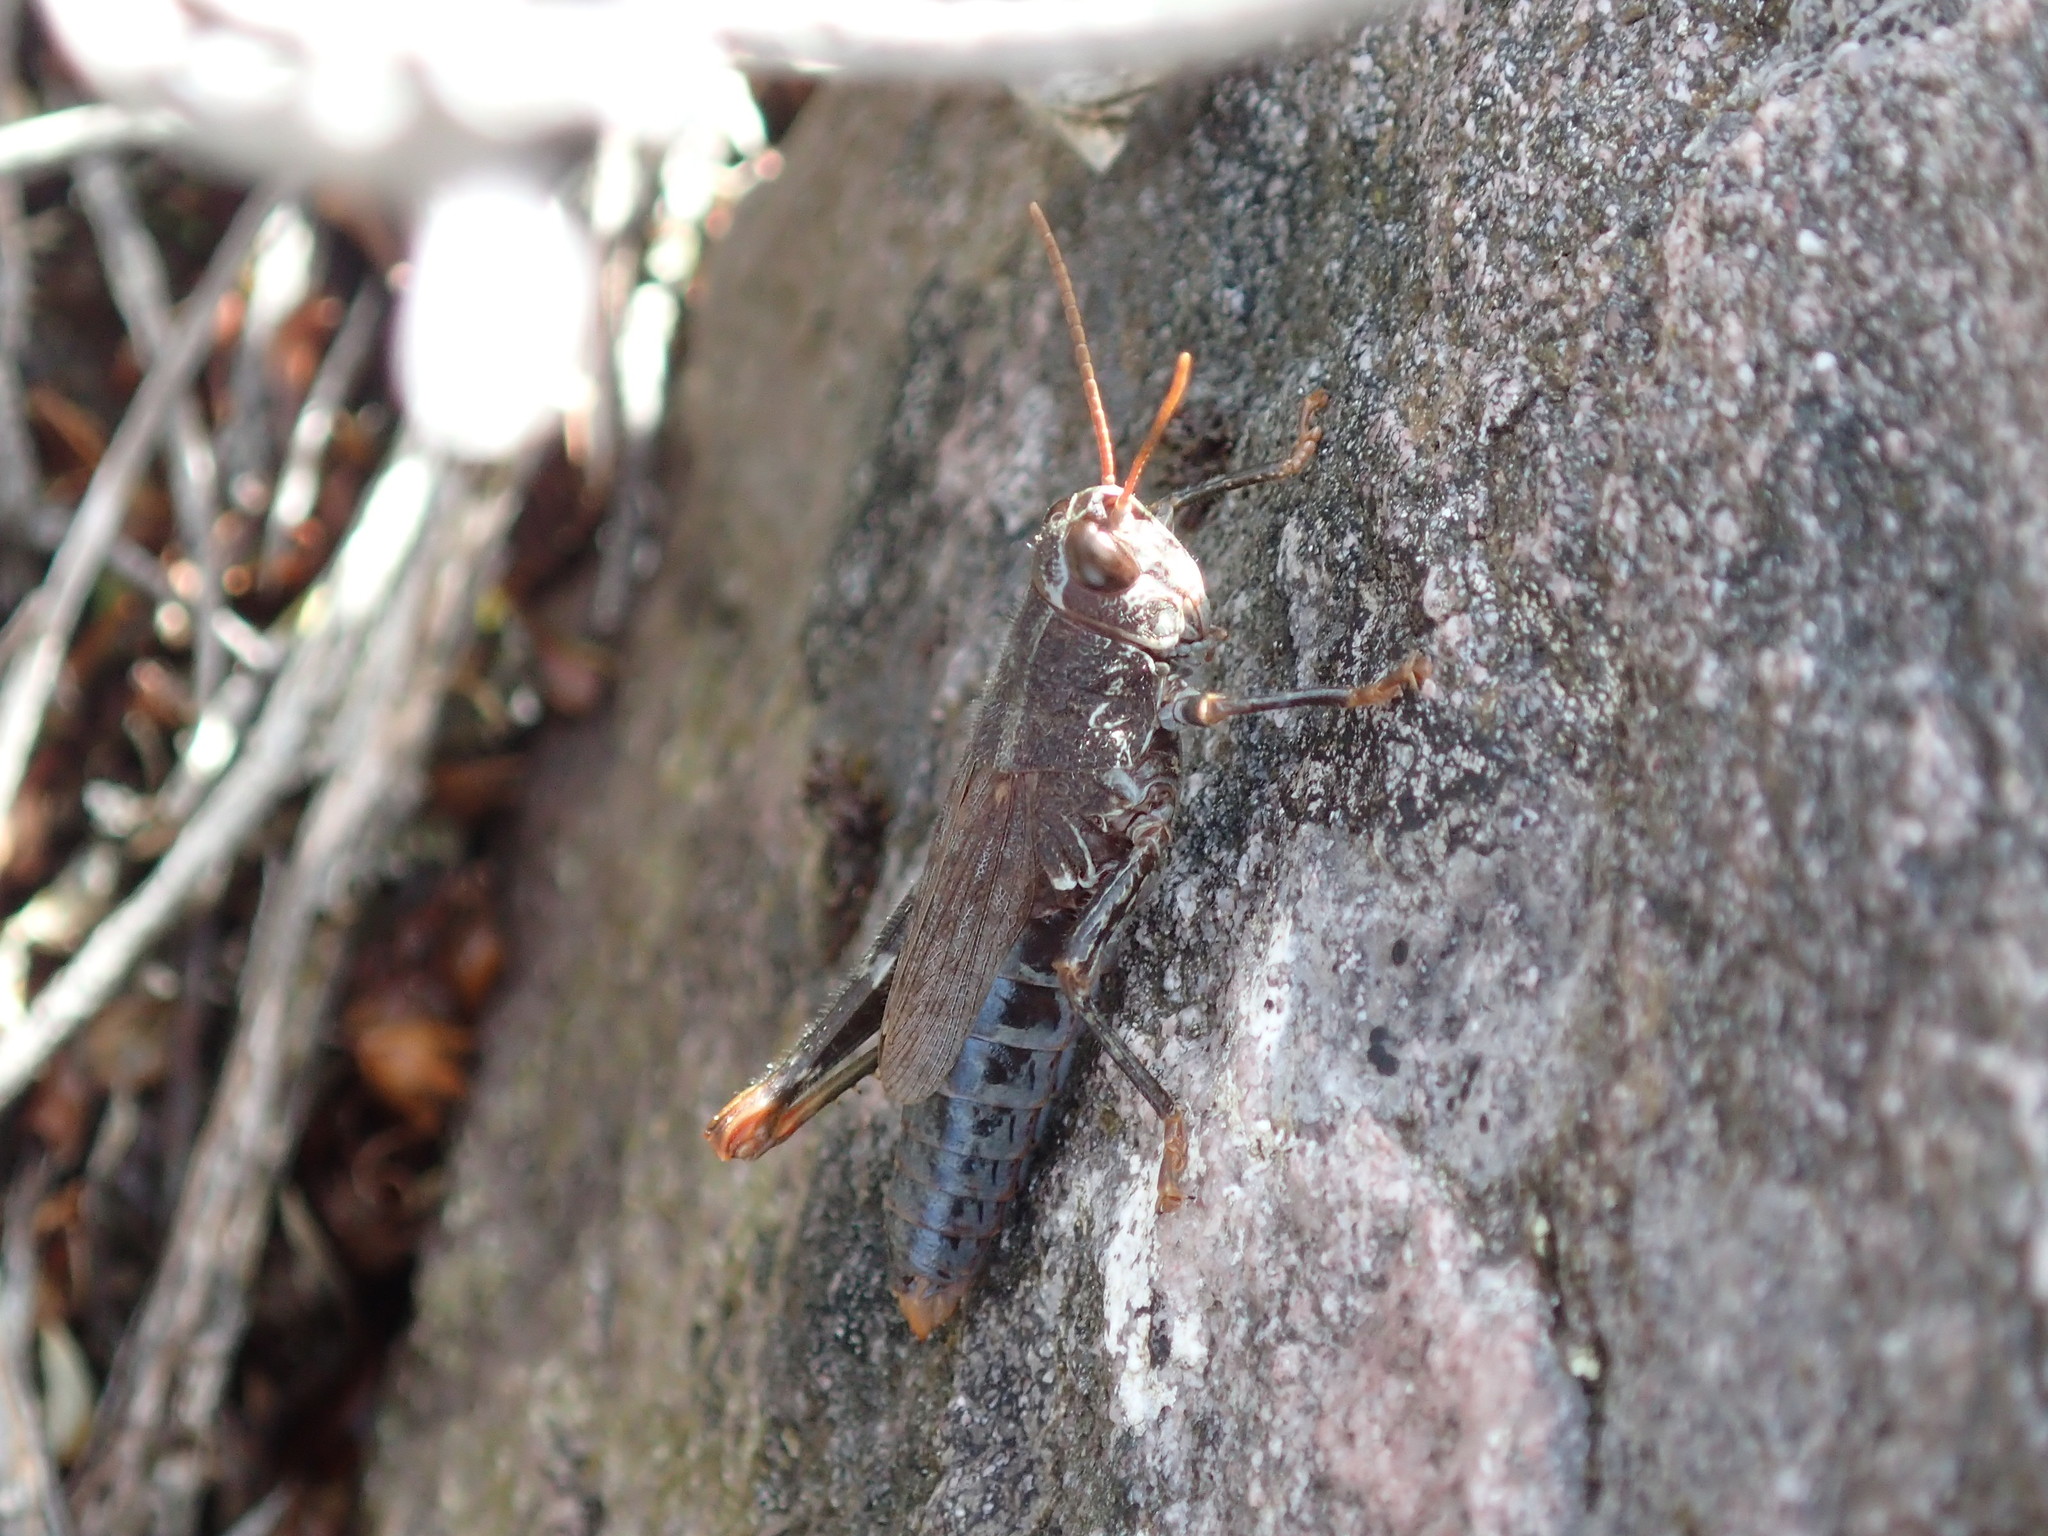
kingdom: Animalia
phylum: Arthropoda
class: Insecta
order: Orthoptera
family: Acrididae
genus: Truganinia
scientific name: Truganinia bauerae
